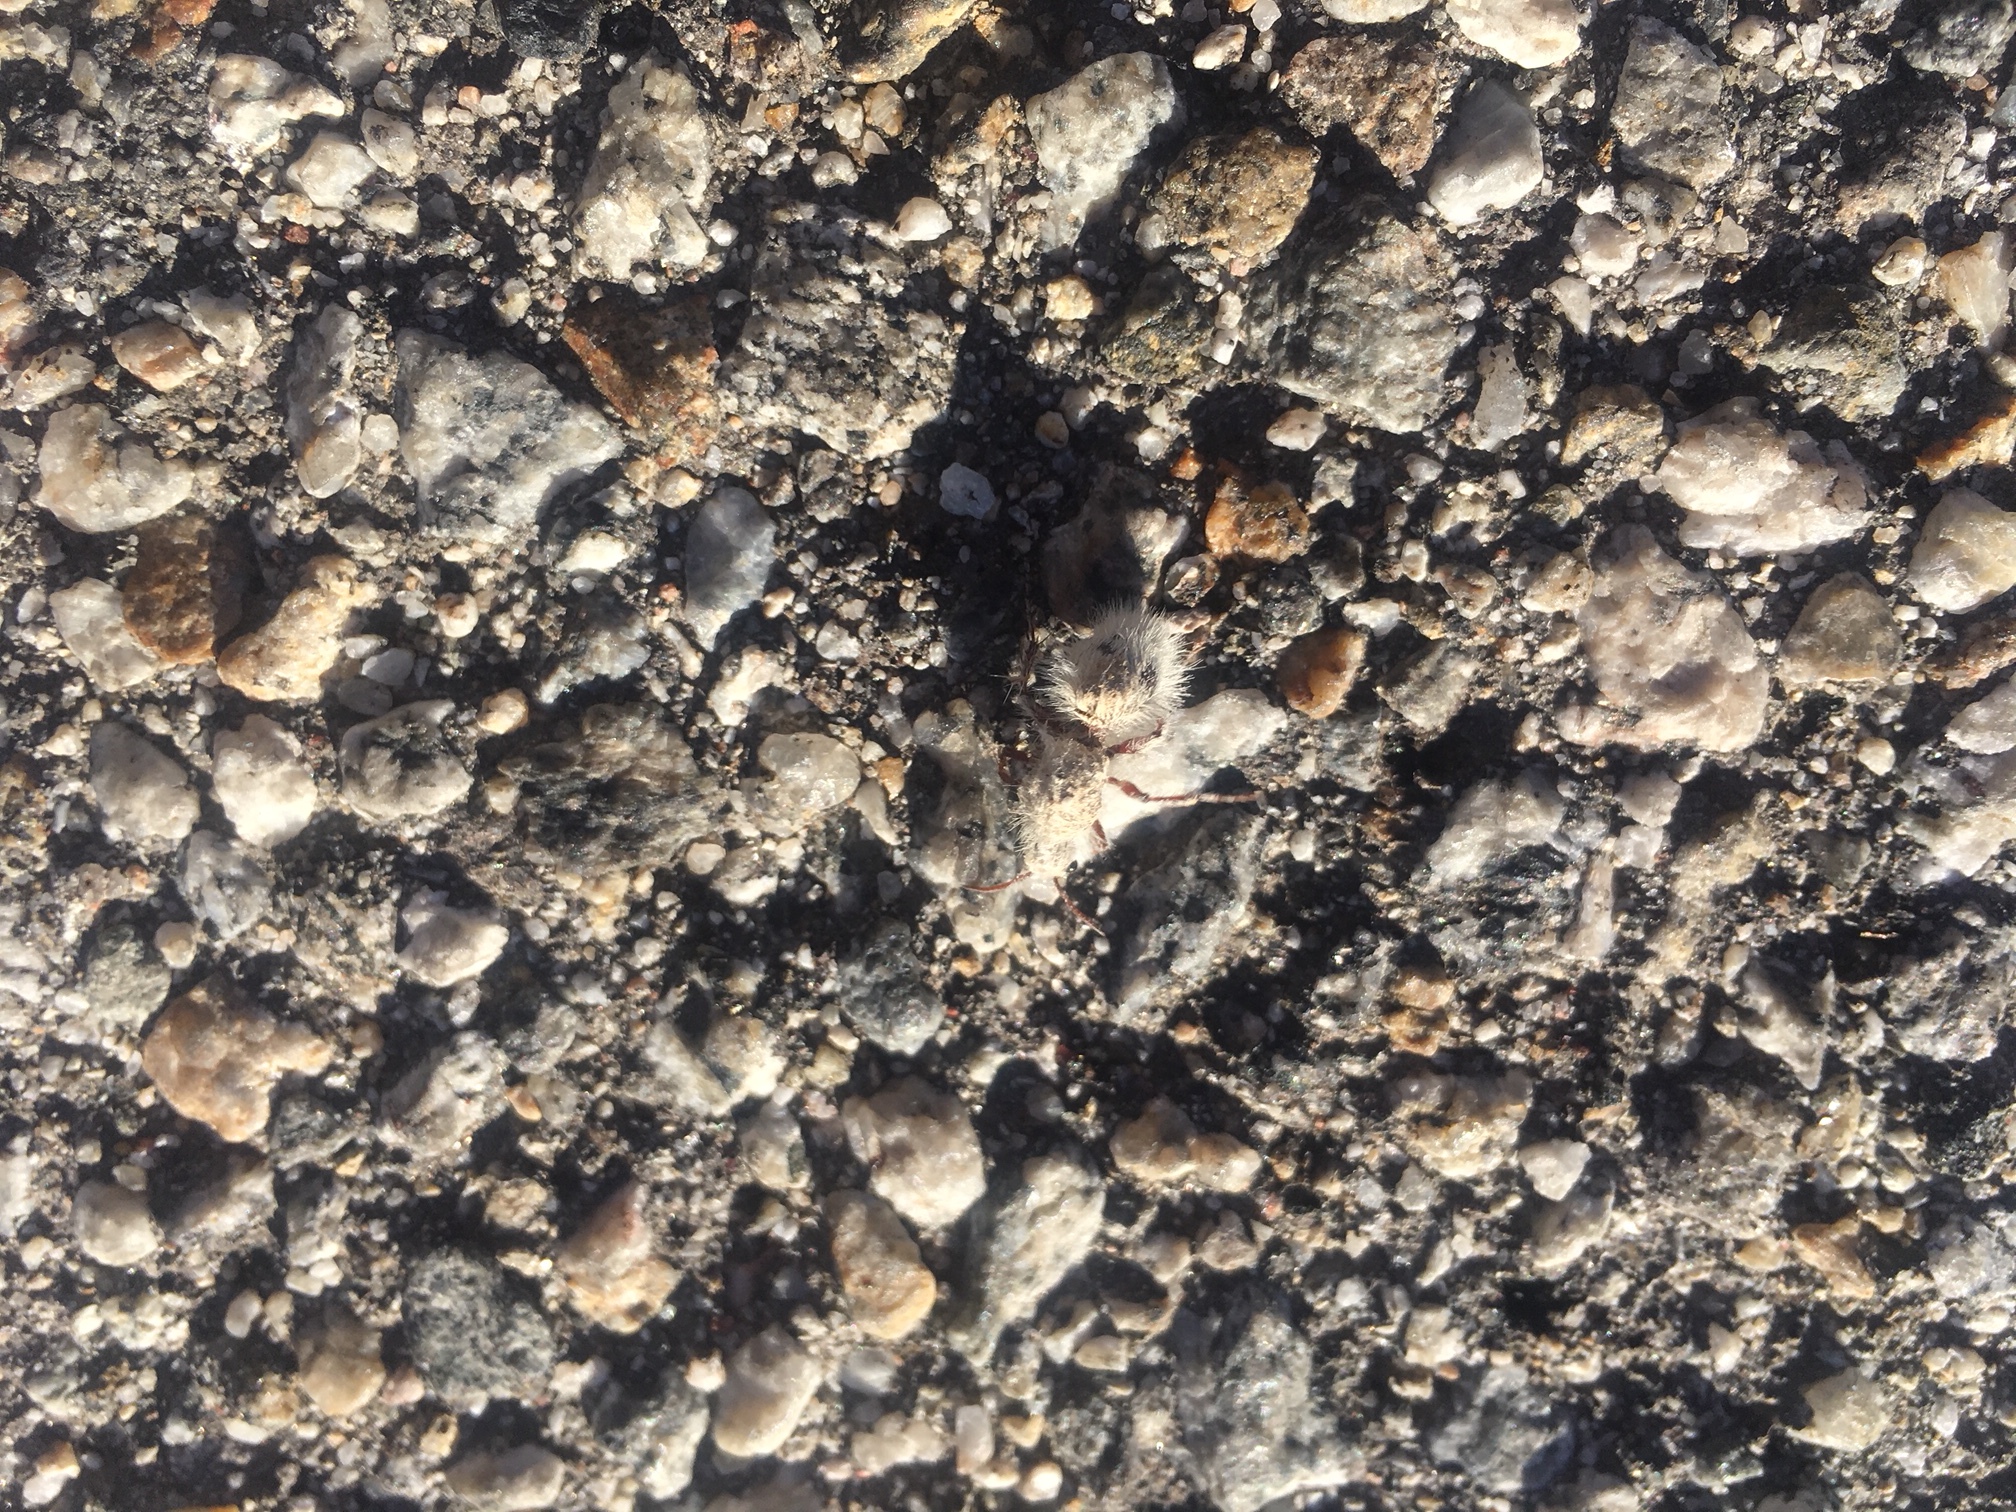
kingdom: Animalia
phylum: Arthropoda
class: Insecta
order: Hymenoptera
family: Mutillidae
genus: Dasymutilla
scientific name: Dasymutilla gloriosa
